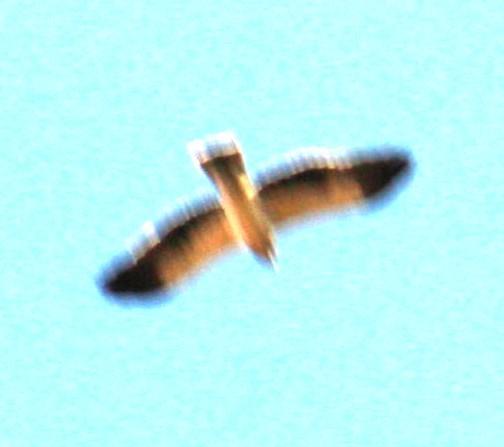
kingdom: Animalia
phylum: Chordata
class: Aves
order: Accipitriformes
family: Accipitridae
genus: Hieraaetus
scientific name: Hieraaetus pennatus
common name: Booted eagle
